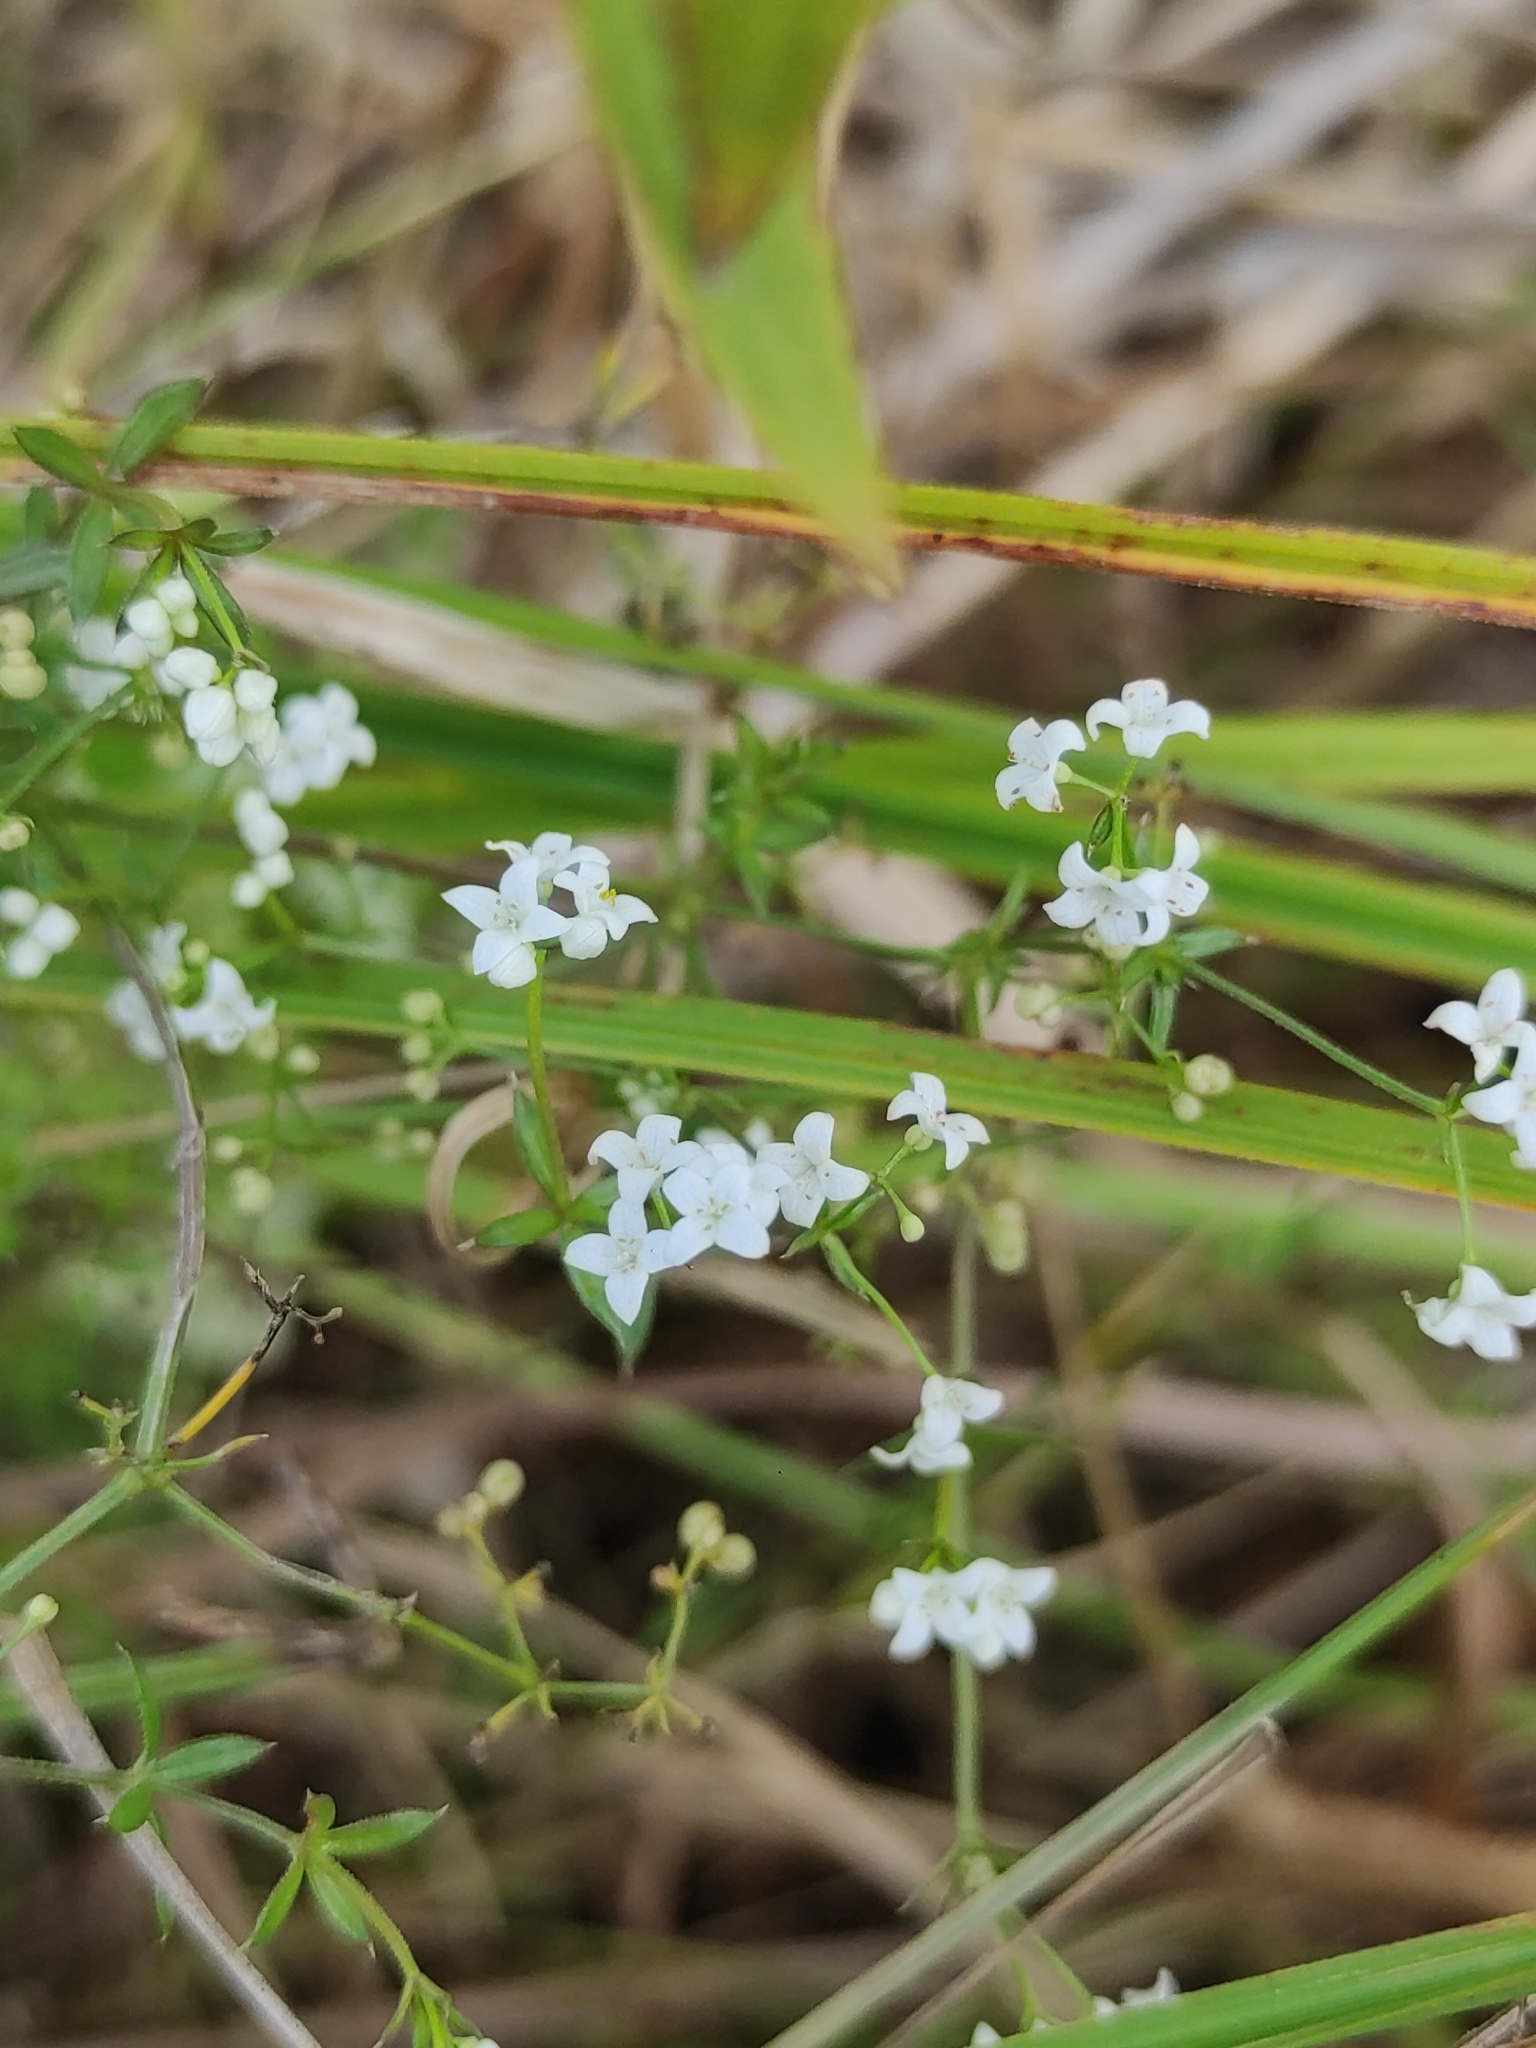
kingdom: Plantae
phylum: Tracheophyta
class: Magnoliopsida
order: Gentianales
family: Rubiaceae
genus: Galium
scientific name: Galium uliginosum
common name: Fen bedstraw
